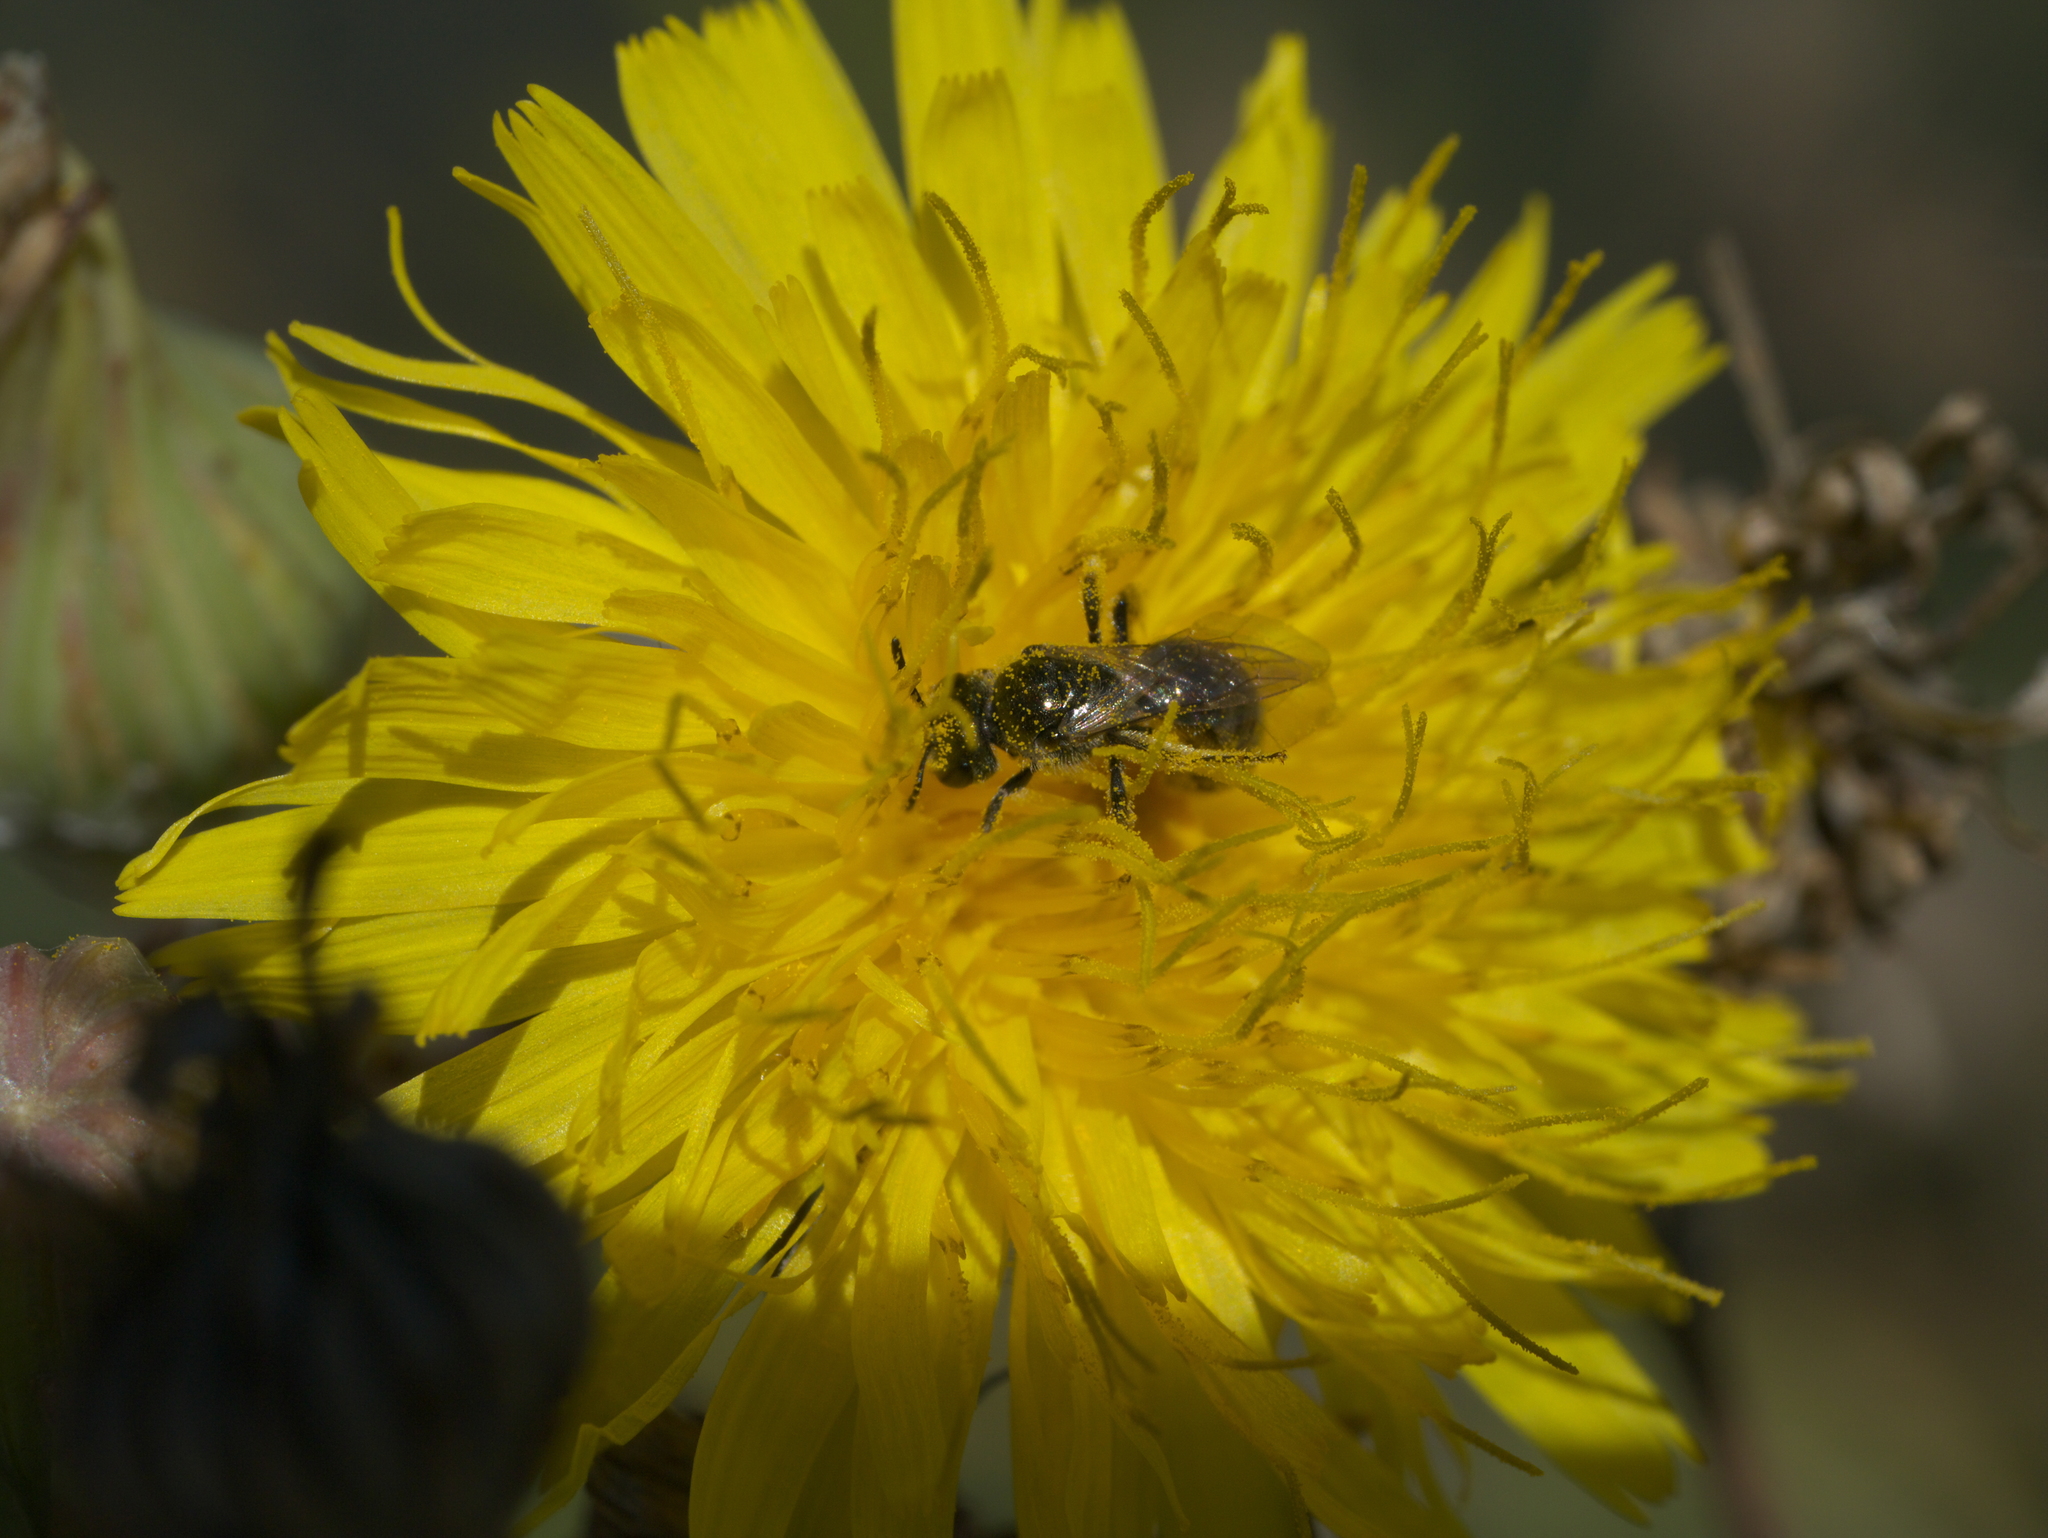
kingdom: Animalia
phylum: Arthropoda
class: Insecta
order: Hymenoptera
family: Halictidae
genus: Dialictus
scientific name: Dialictus
